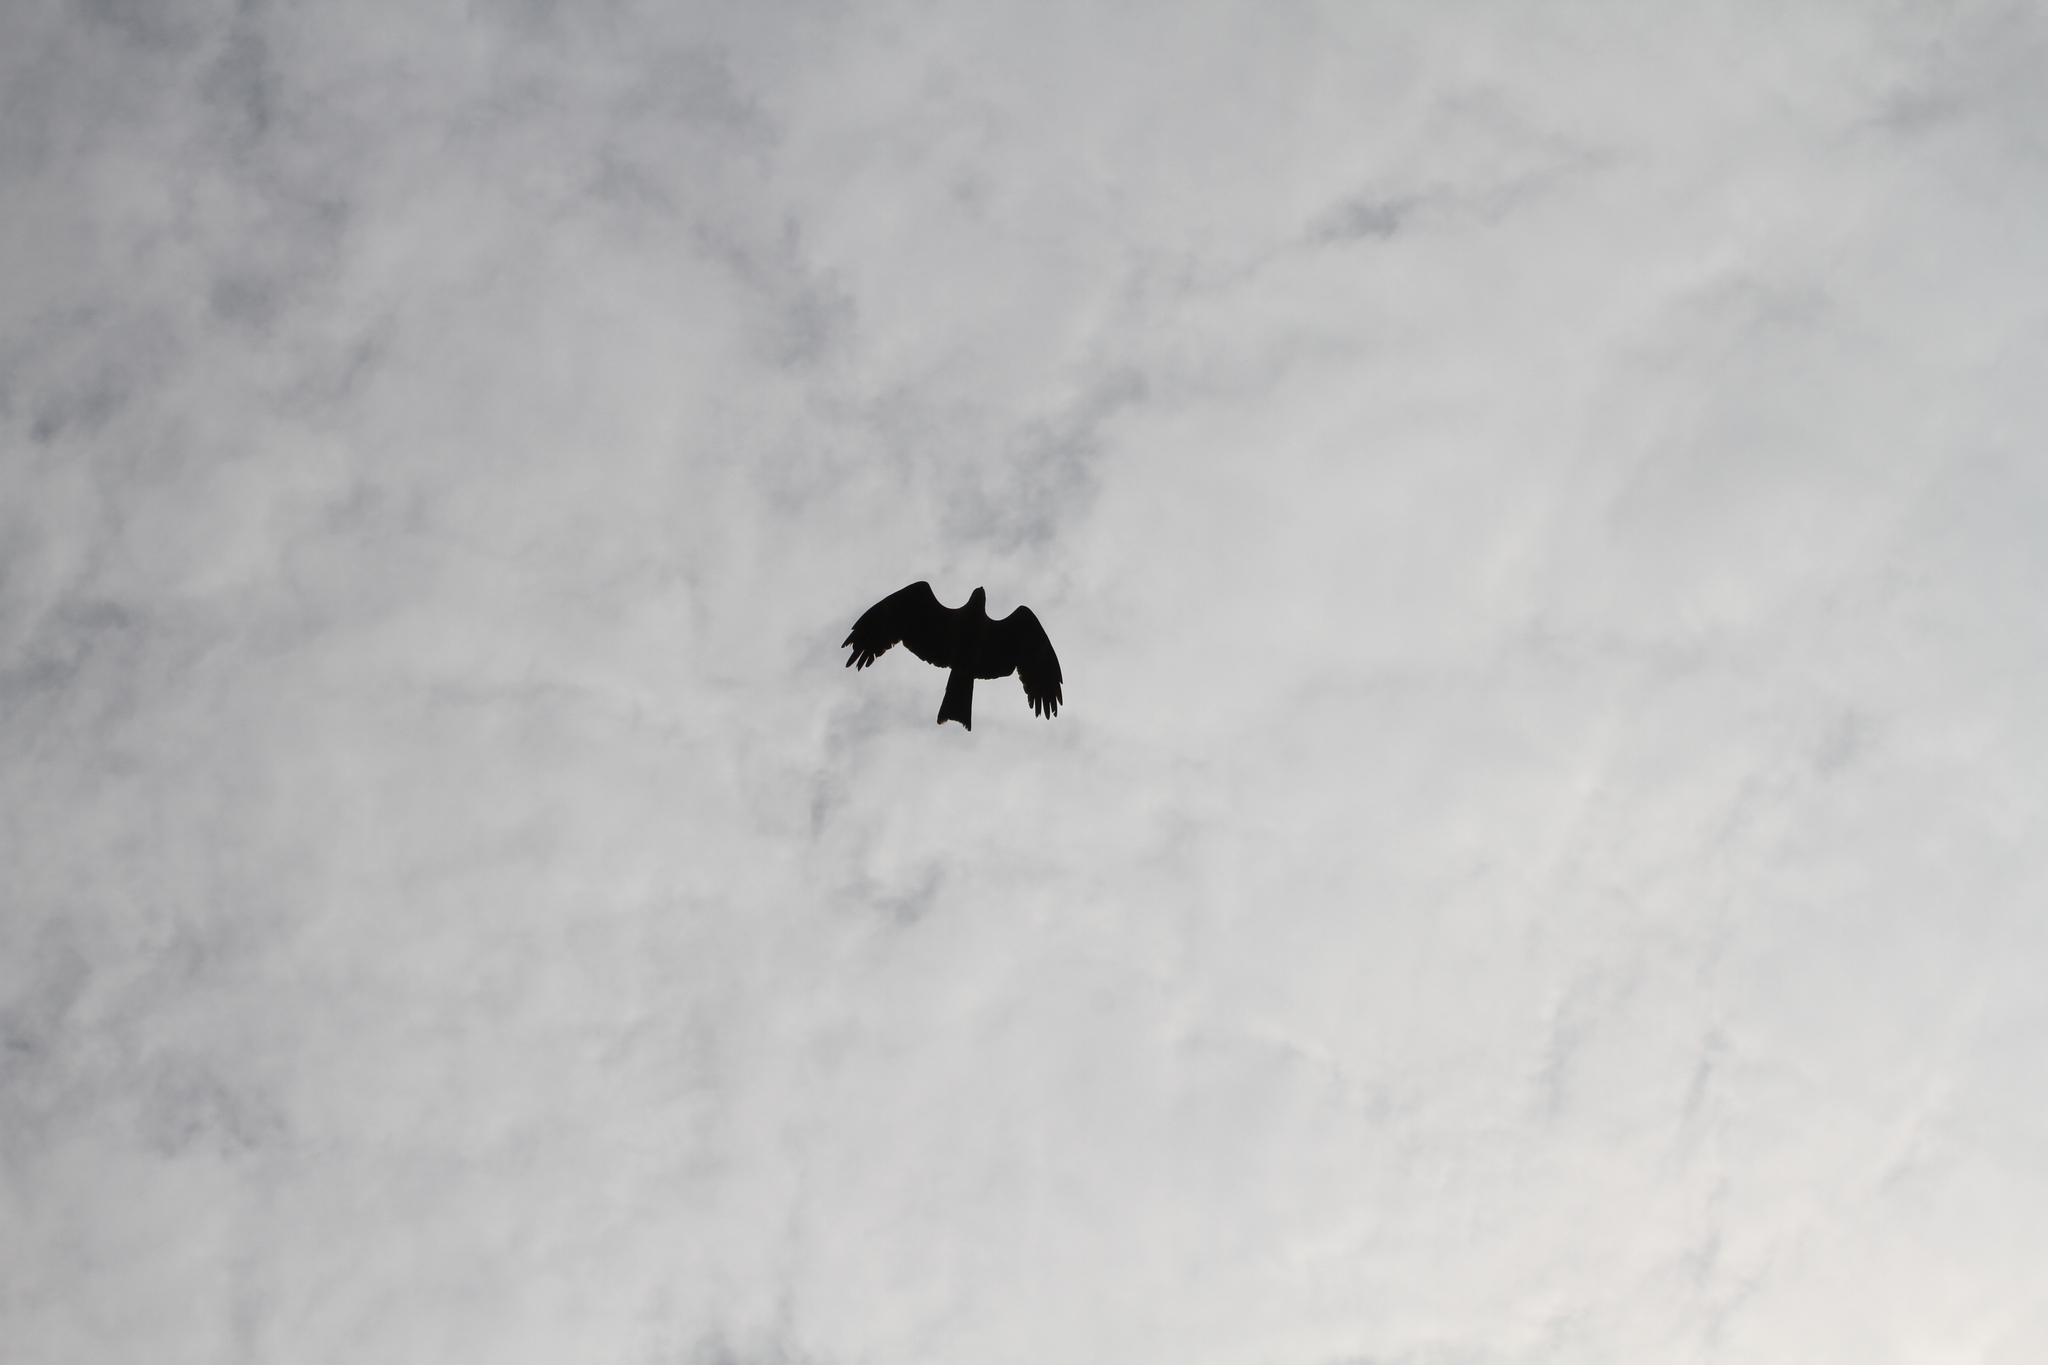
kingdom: Animalia
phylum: Chordata
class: Aves
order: Accipitriformes
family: Accipitridae
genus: Milvus
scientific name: Milvus migrans
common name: Black kite
